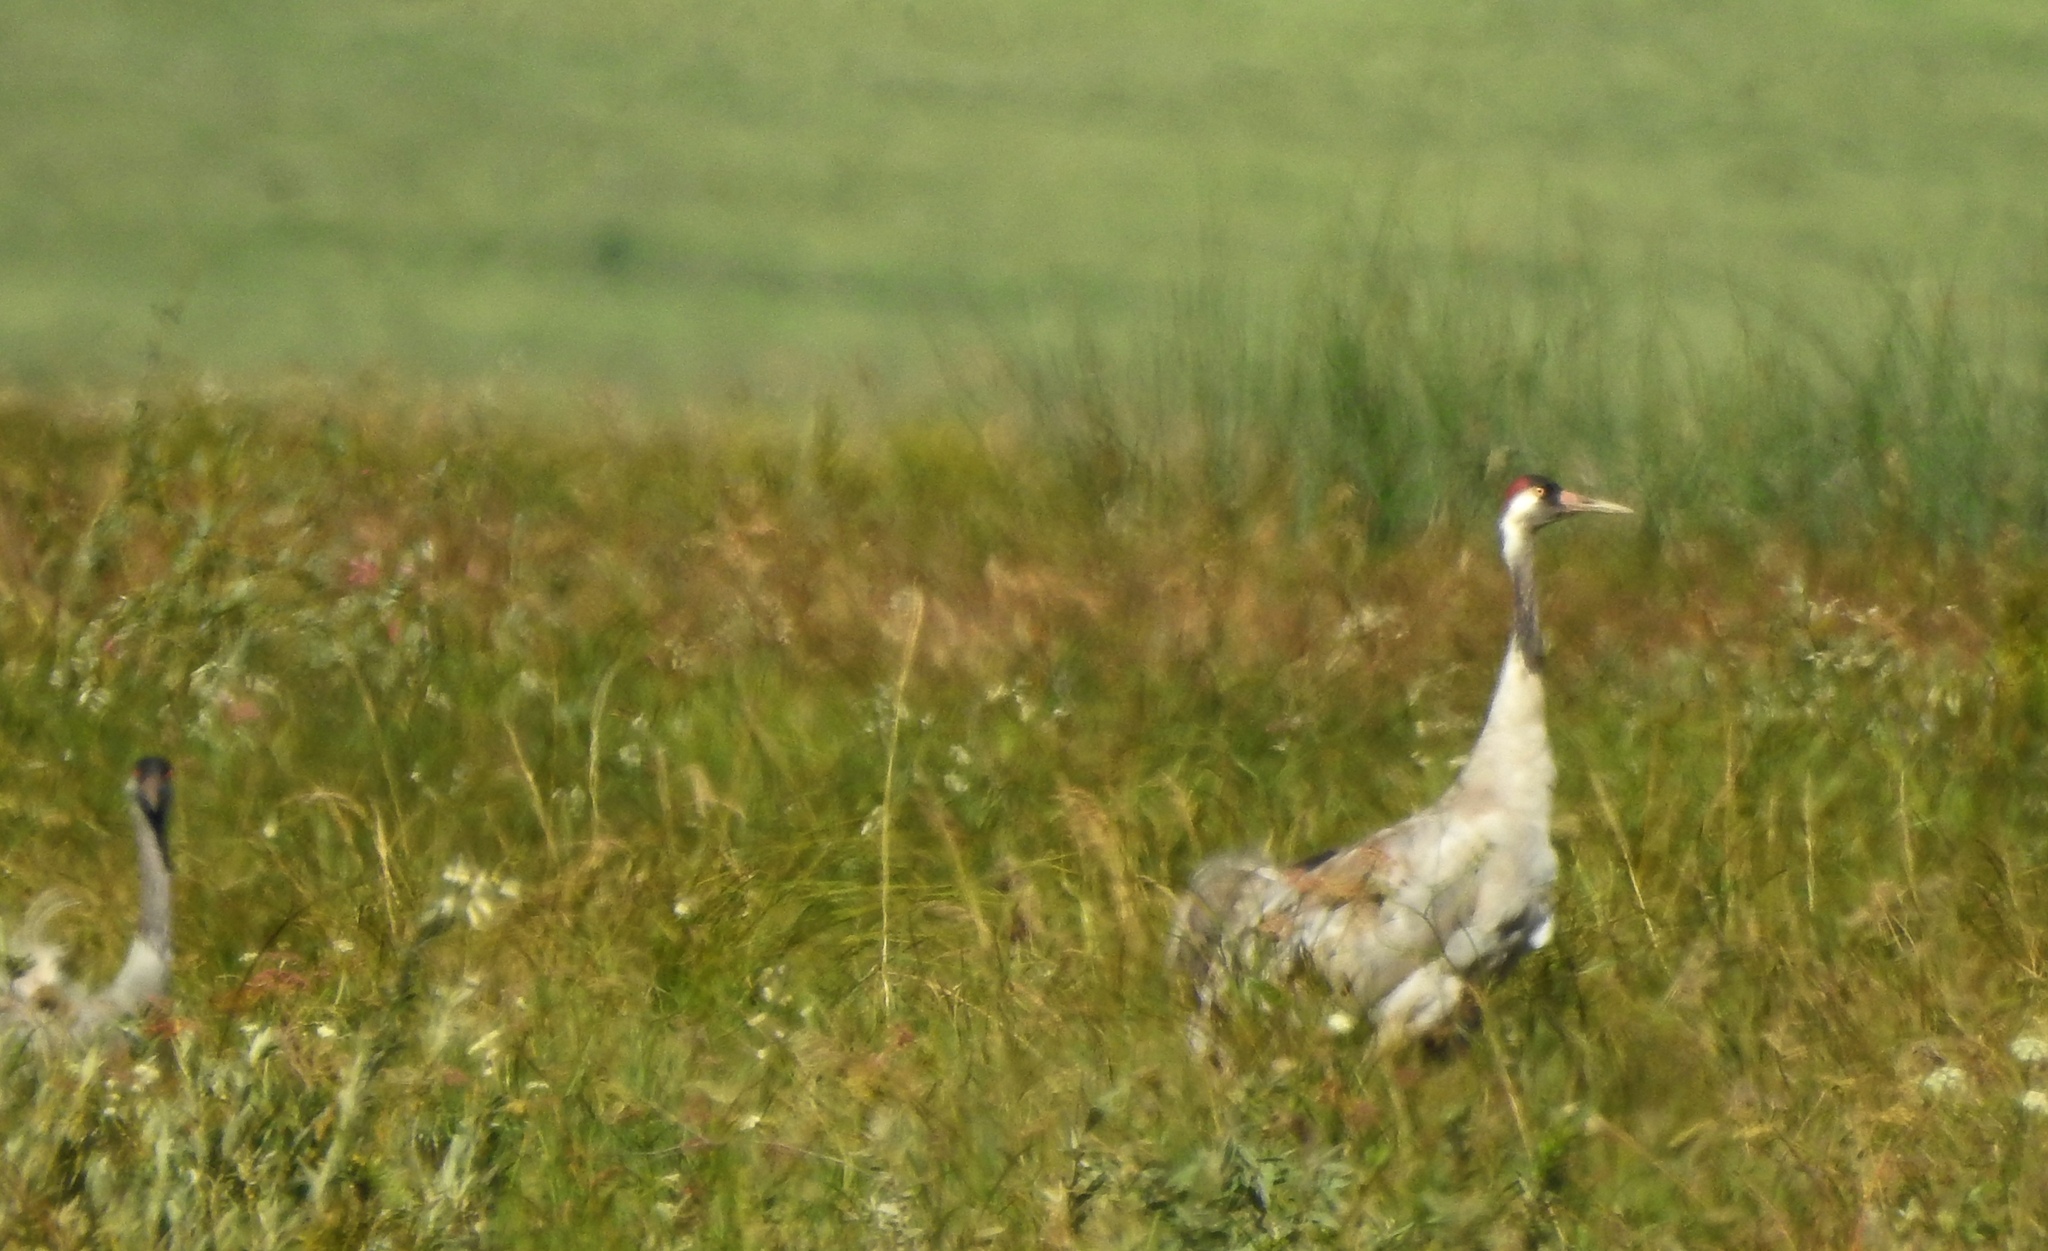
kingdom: Animalia
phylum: Chordata
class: Aves
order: Gruiformes
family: Gruidae
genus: Grus
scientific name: Grus grus
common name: Common crane
